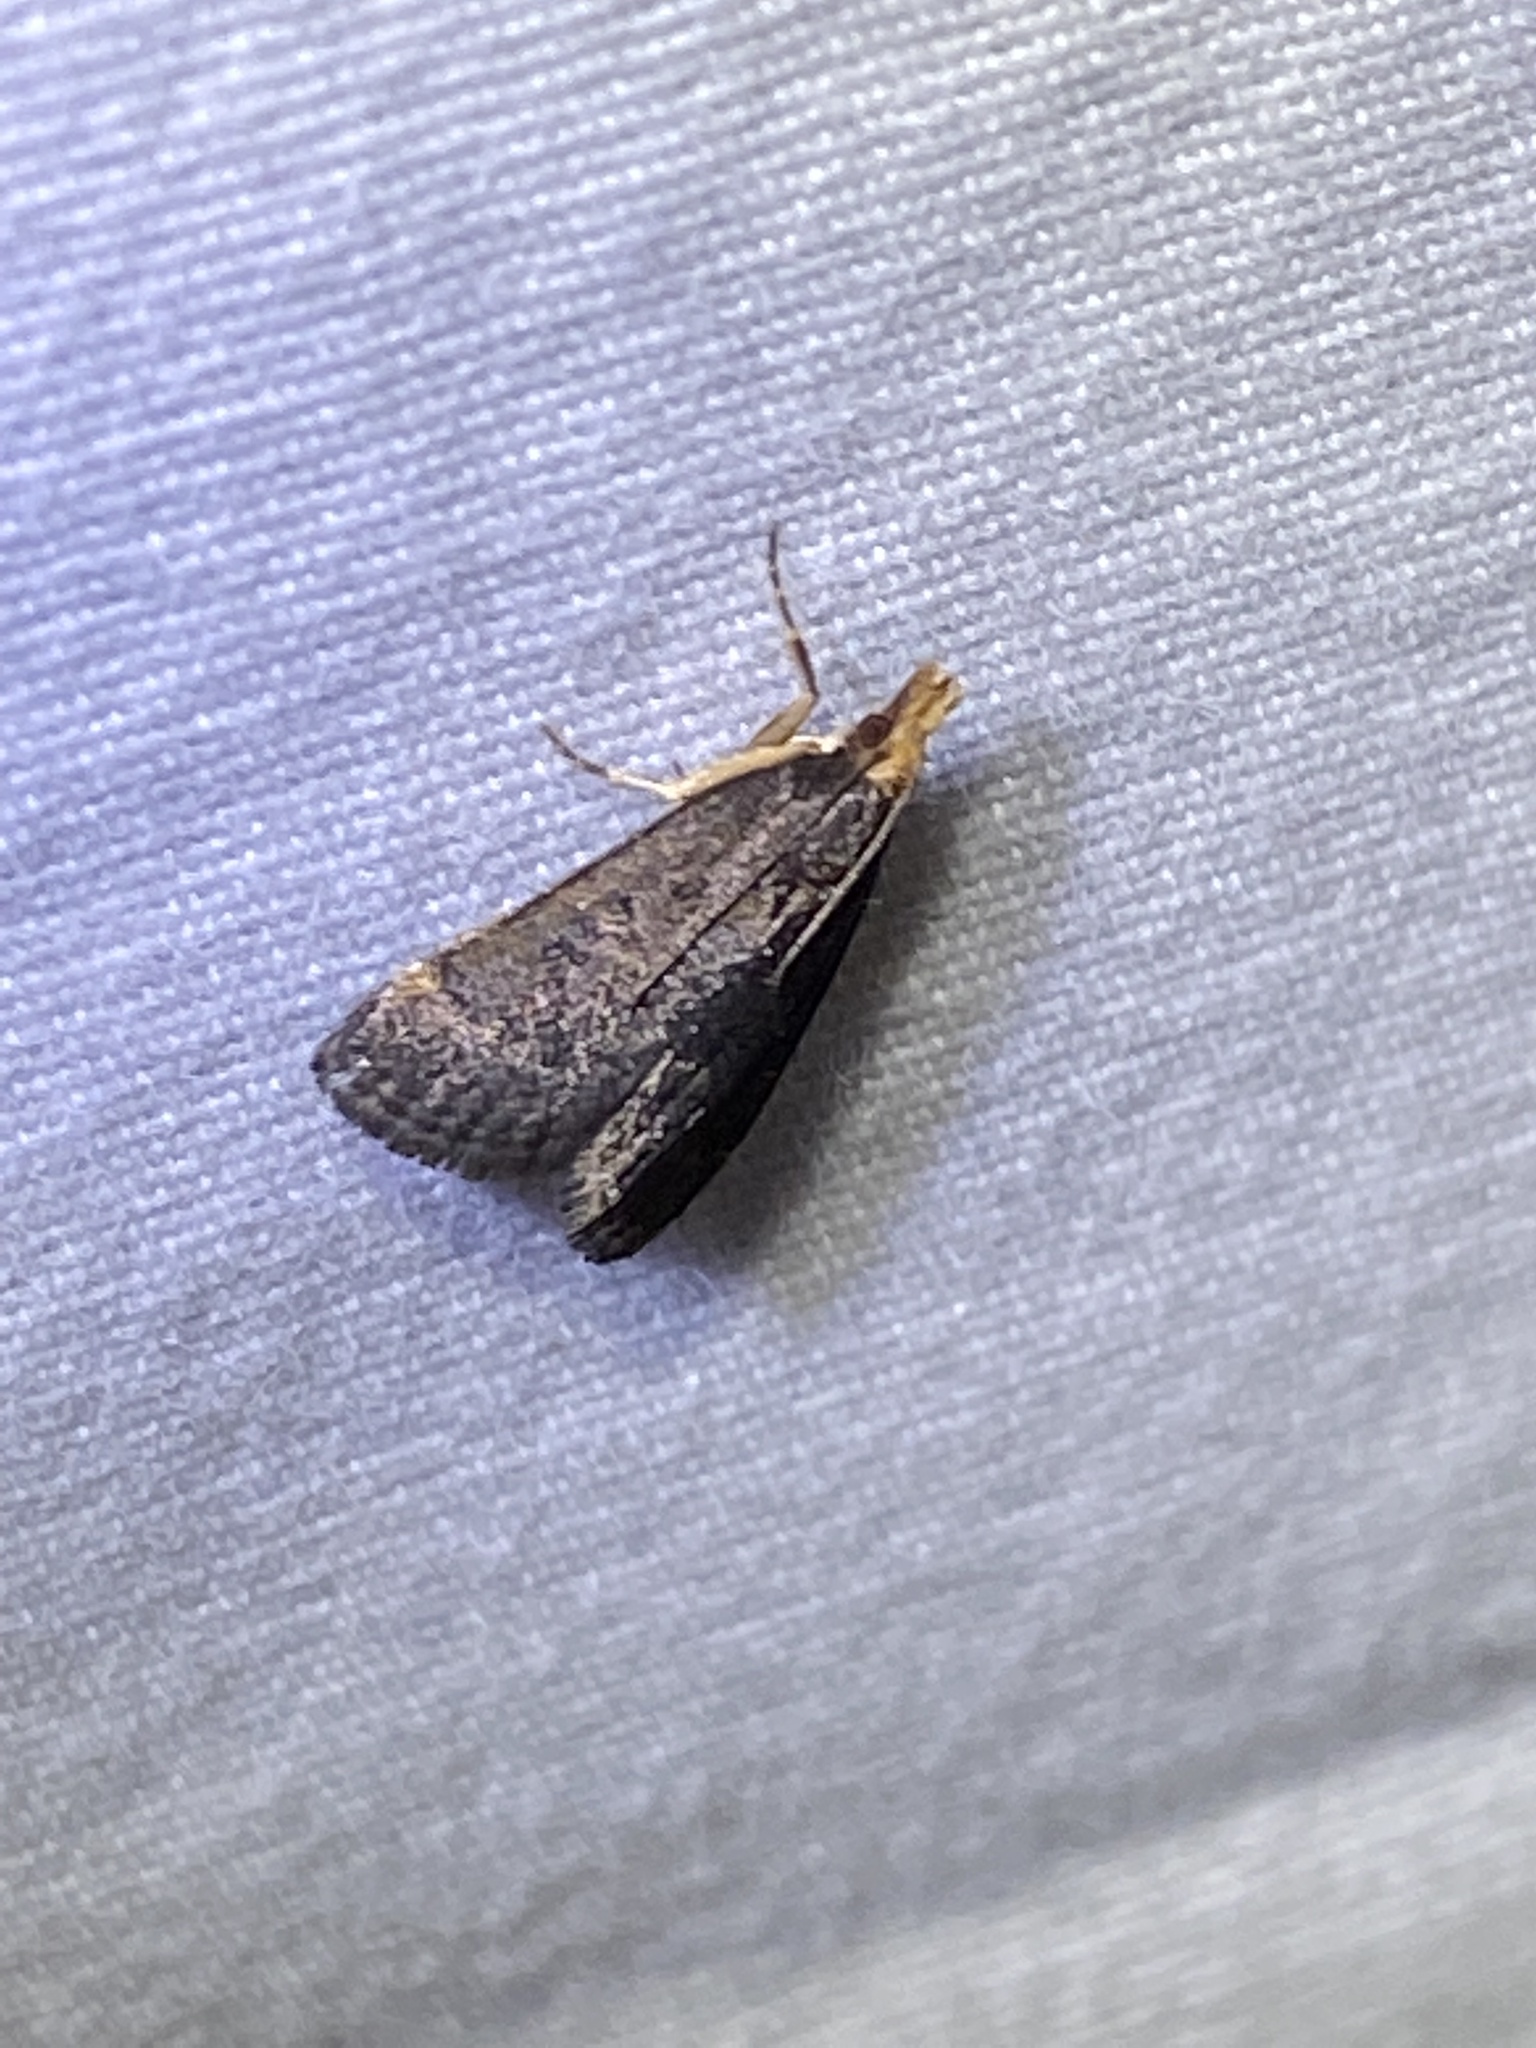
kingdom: Animalia
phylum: Arthropoda
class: Insecta
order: Lepidoptera
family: Crambidae
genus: Pyrausta
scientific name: Pyrausta merrickalis
